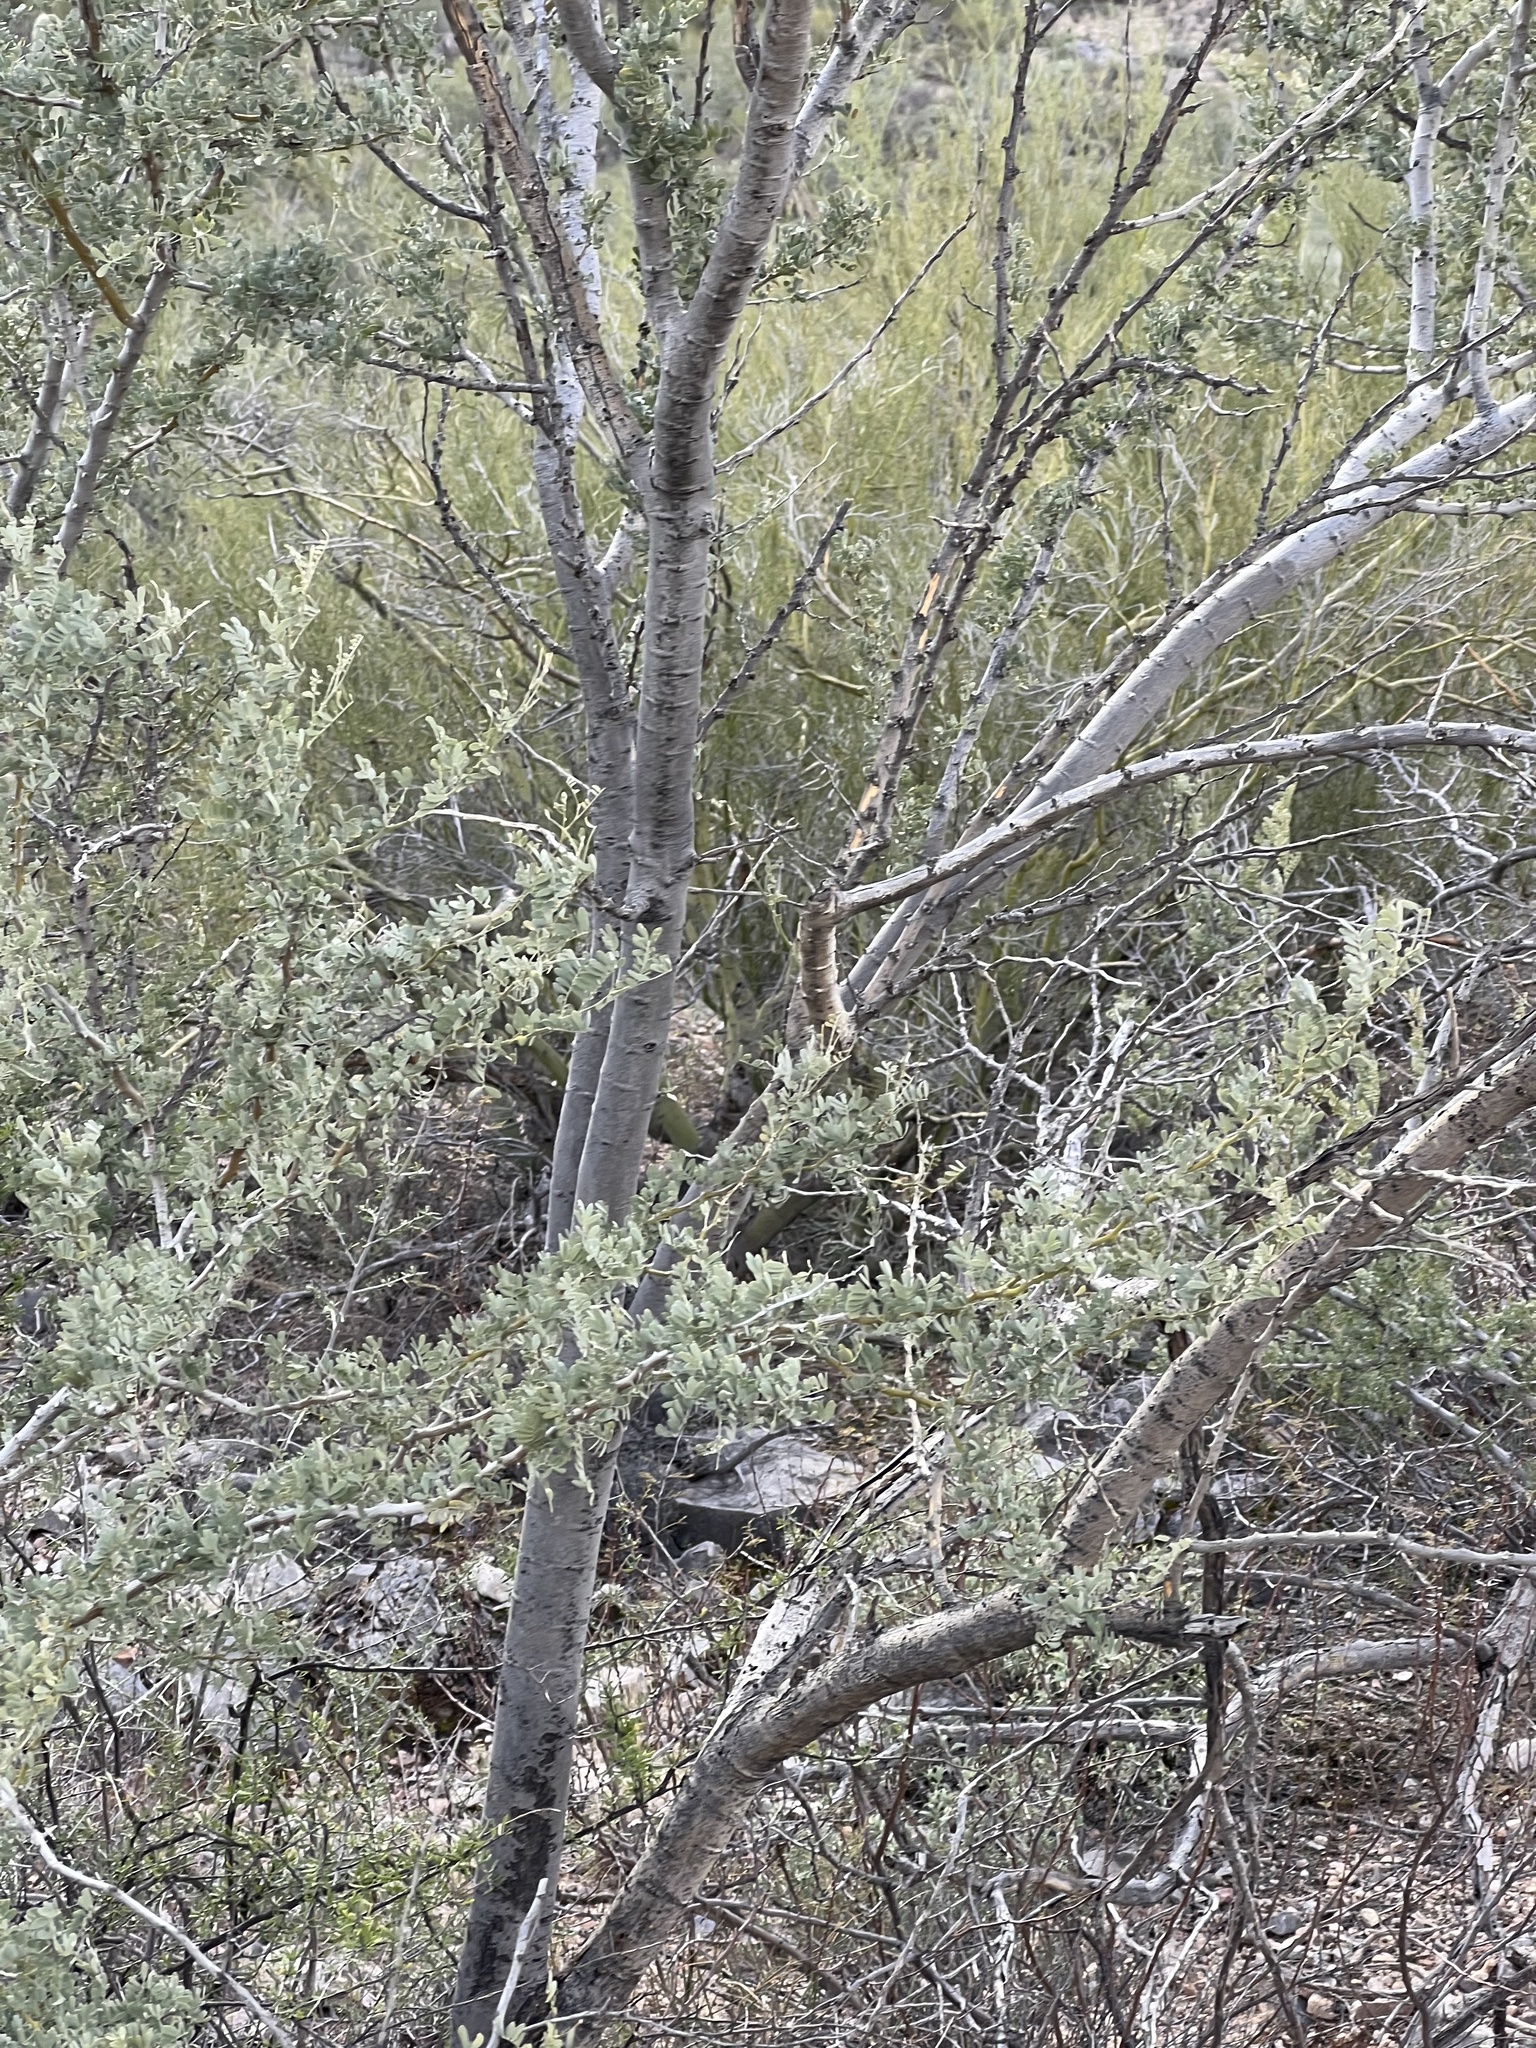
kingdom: Plantae
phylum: Tracheophyta
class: Magnoliopsida
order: Fabales
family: Fabaceae
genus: Olneya
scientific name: Olneya tesota
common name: Desert ironwood
